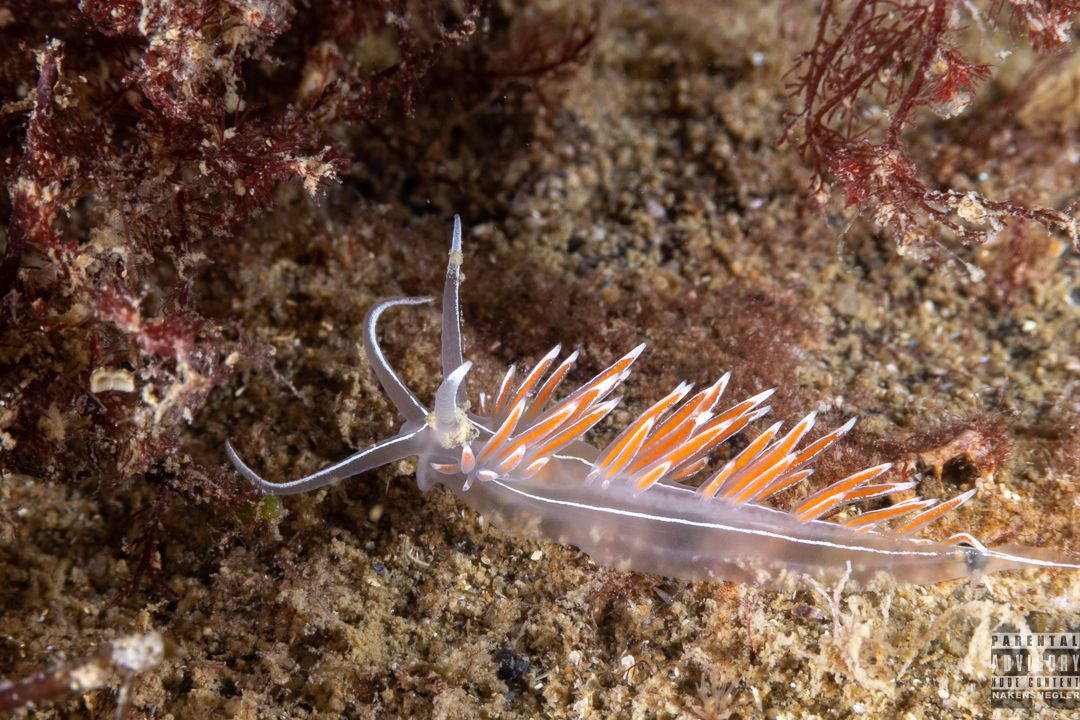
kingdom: Animalia
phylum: Mollusca
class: Gastropoda
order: Nudibranchia
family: Coryphellidae
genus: Coryphella
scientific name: Coryphella lineata
